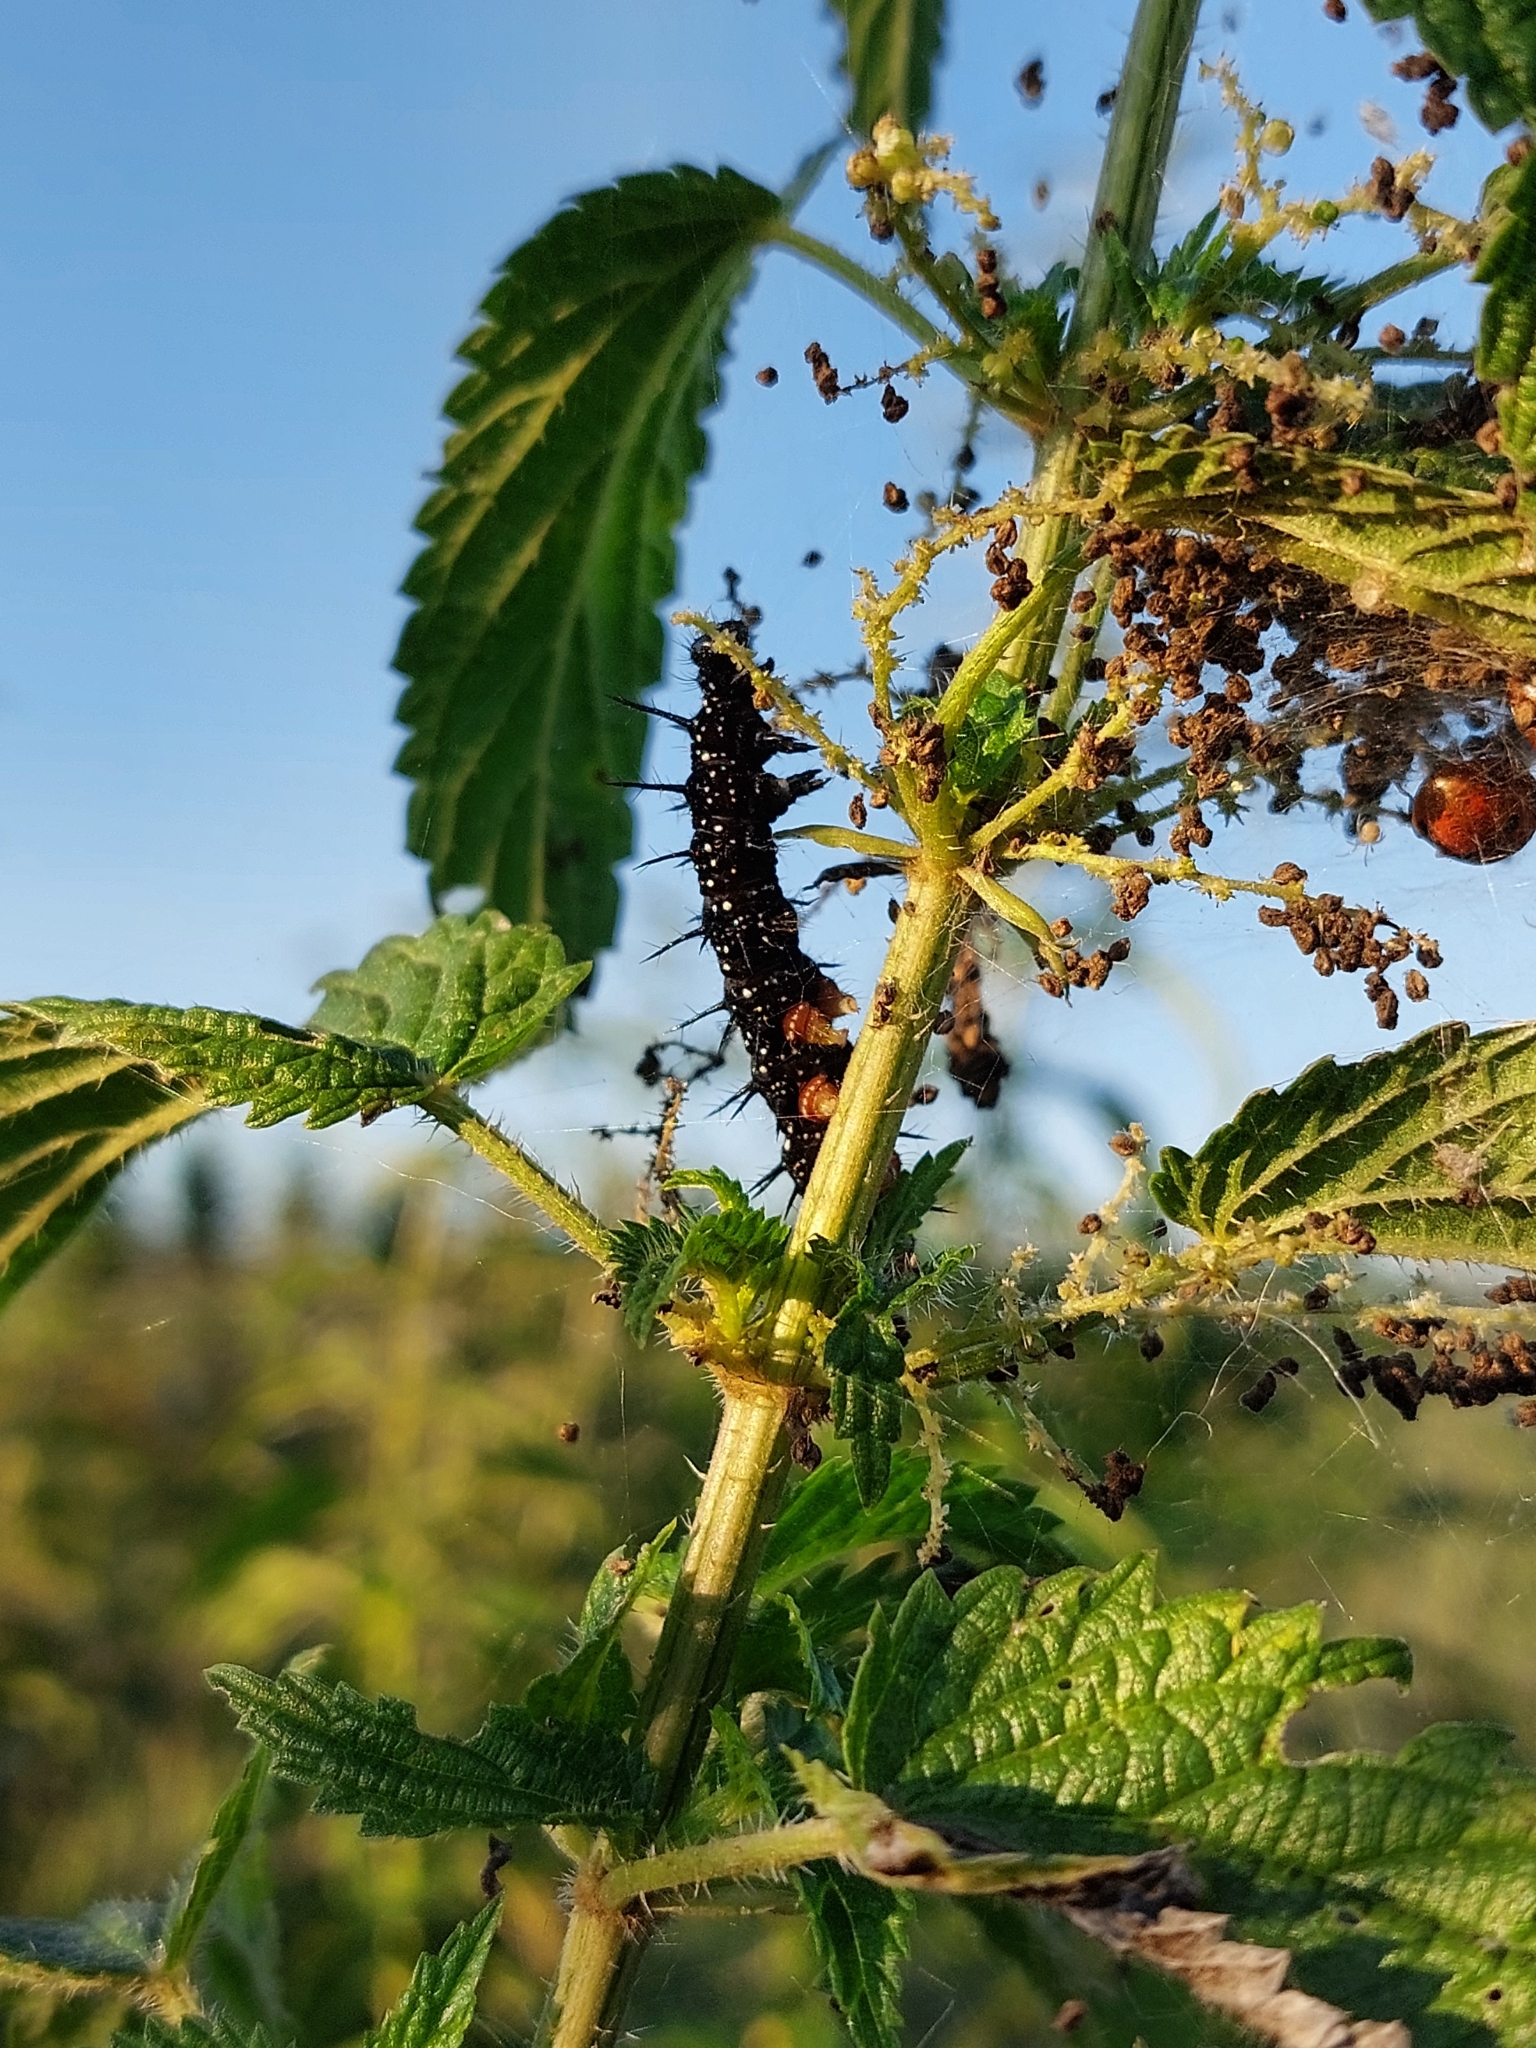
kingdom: Animalia
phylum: Arthropoda
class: Insecta
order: Lepidoptera
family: Nymphalidae
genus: Aglais
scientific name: Aglais io
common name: Peacock
